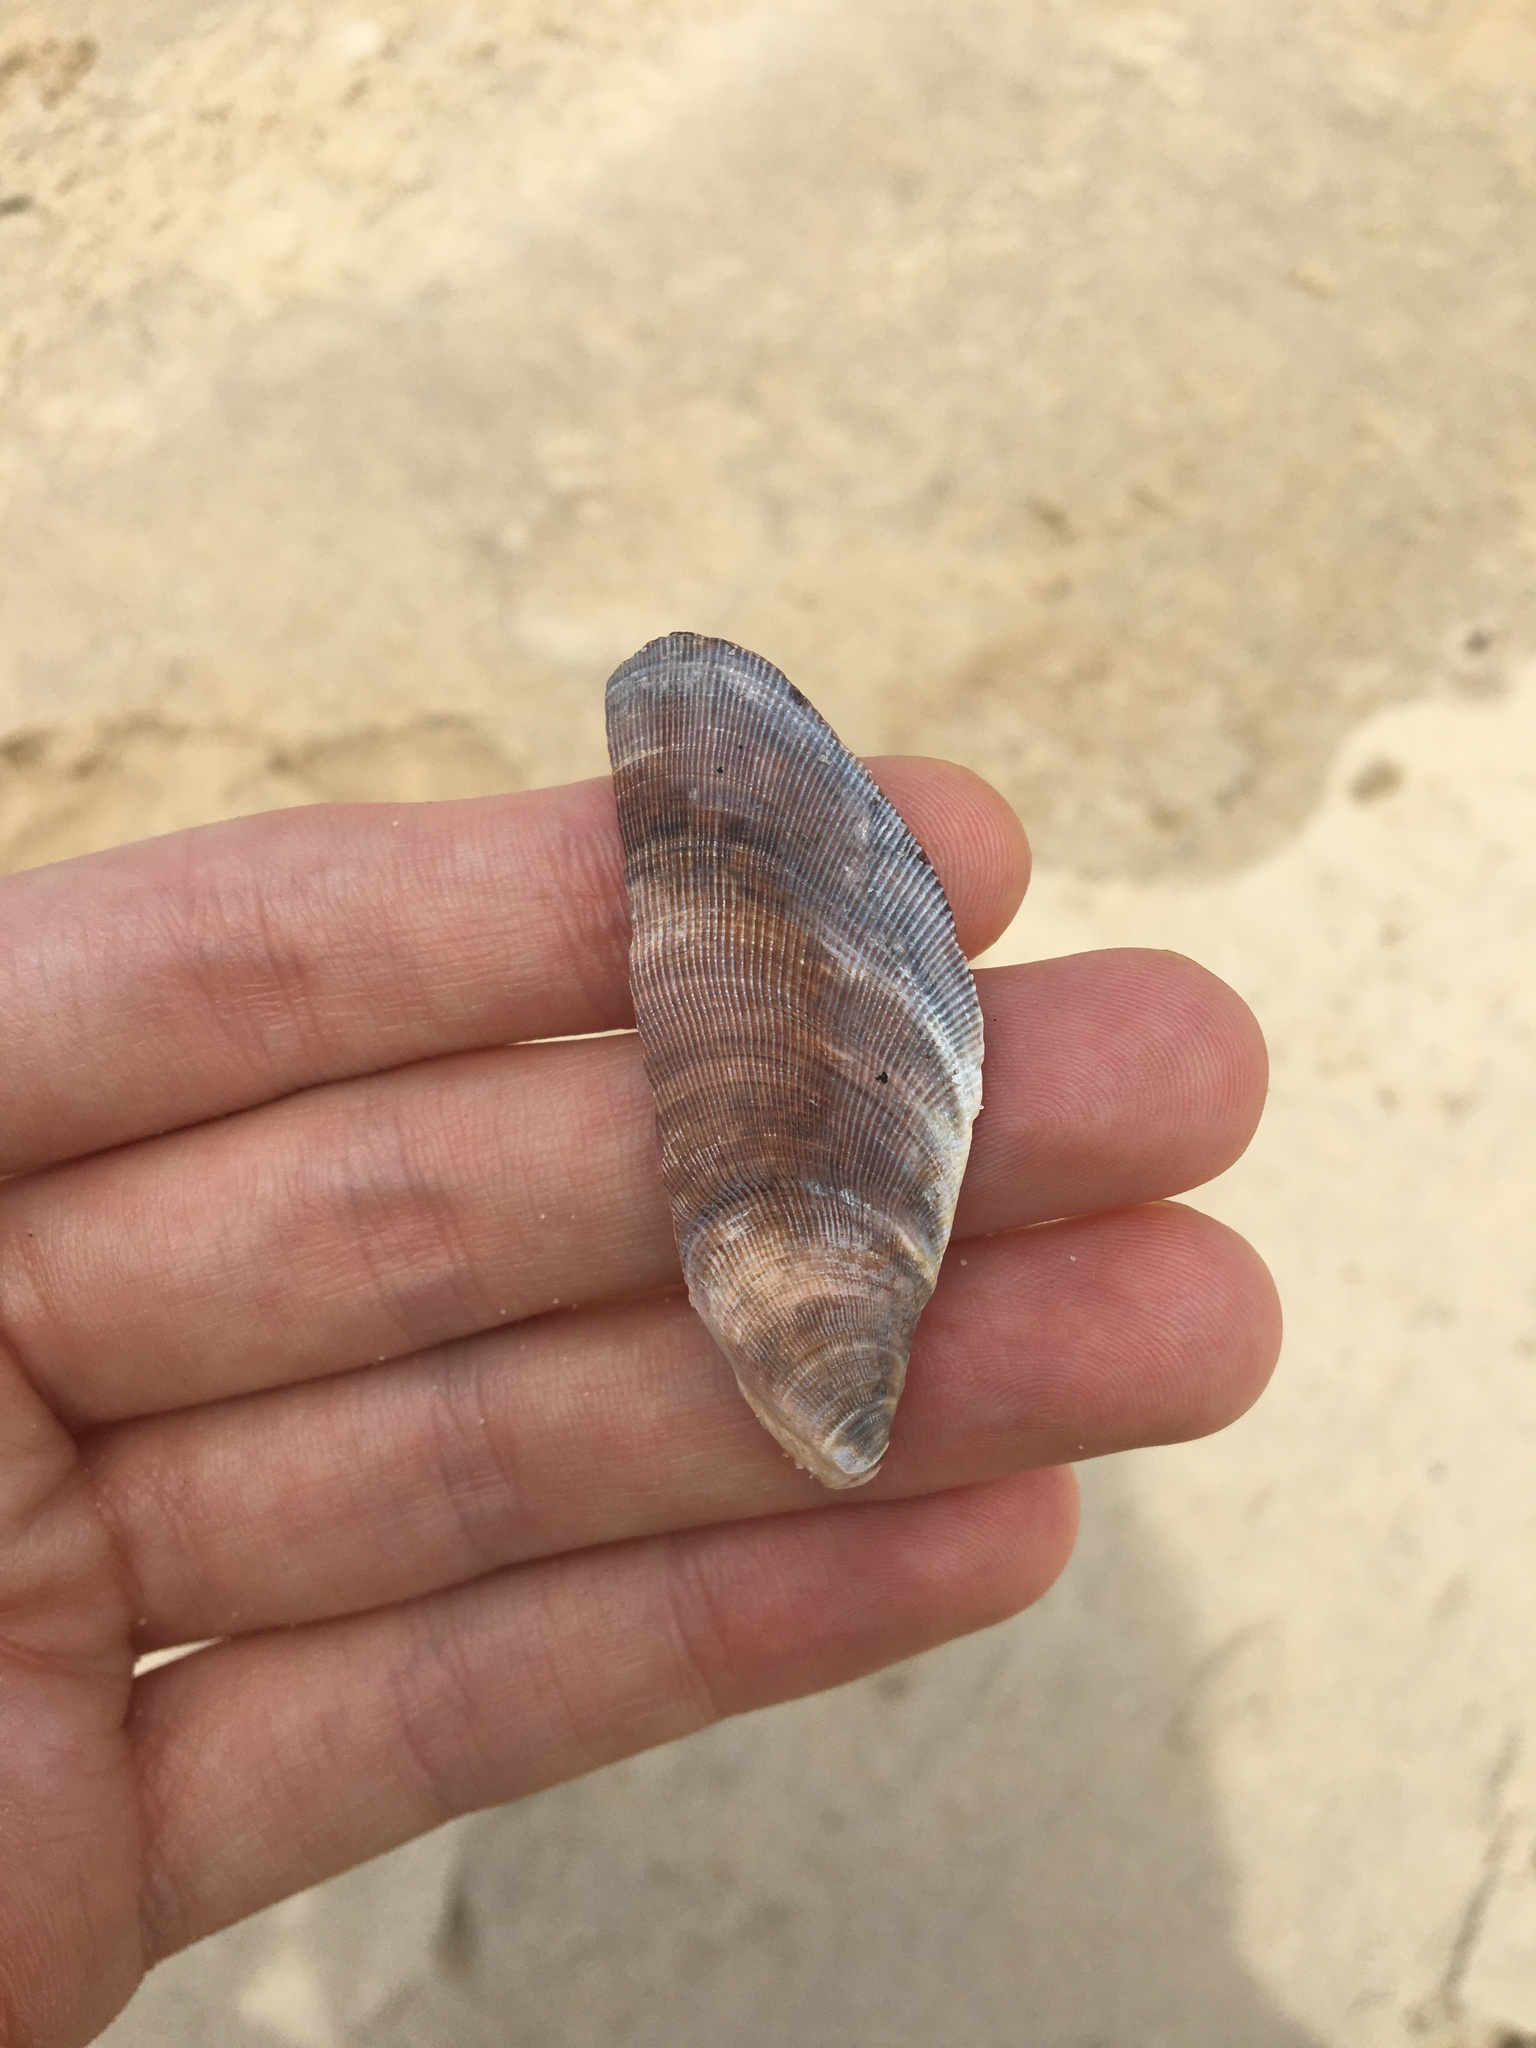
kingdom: Animalia
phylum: Mollusca
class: Bivalvia
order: Mytilida
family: Mytilidae
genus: Trichomya
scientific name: Trichomya hirsuta
